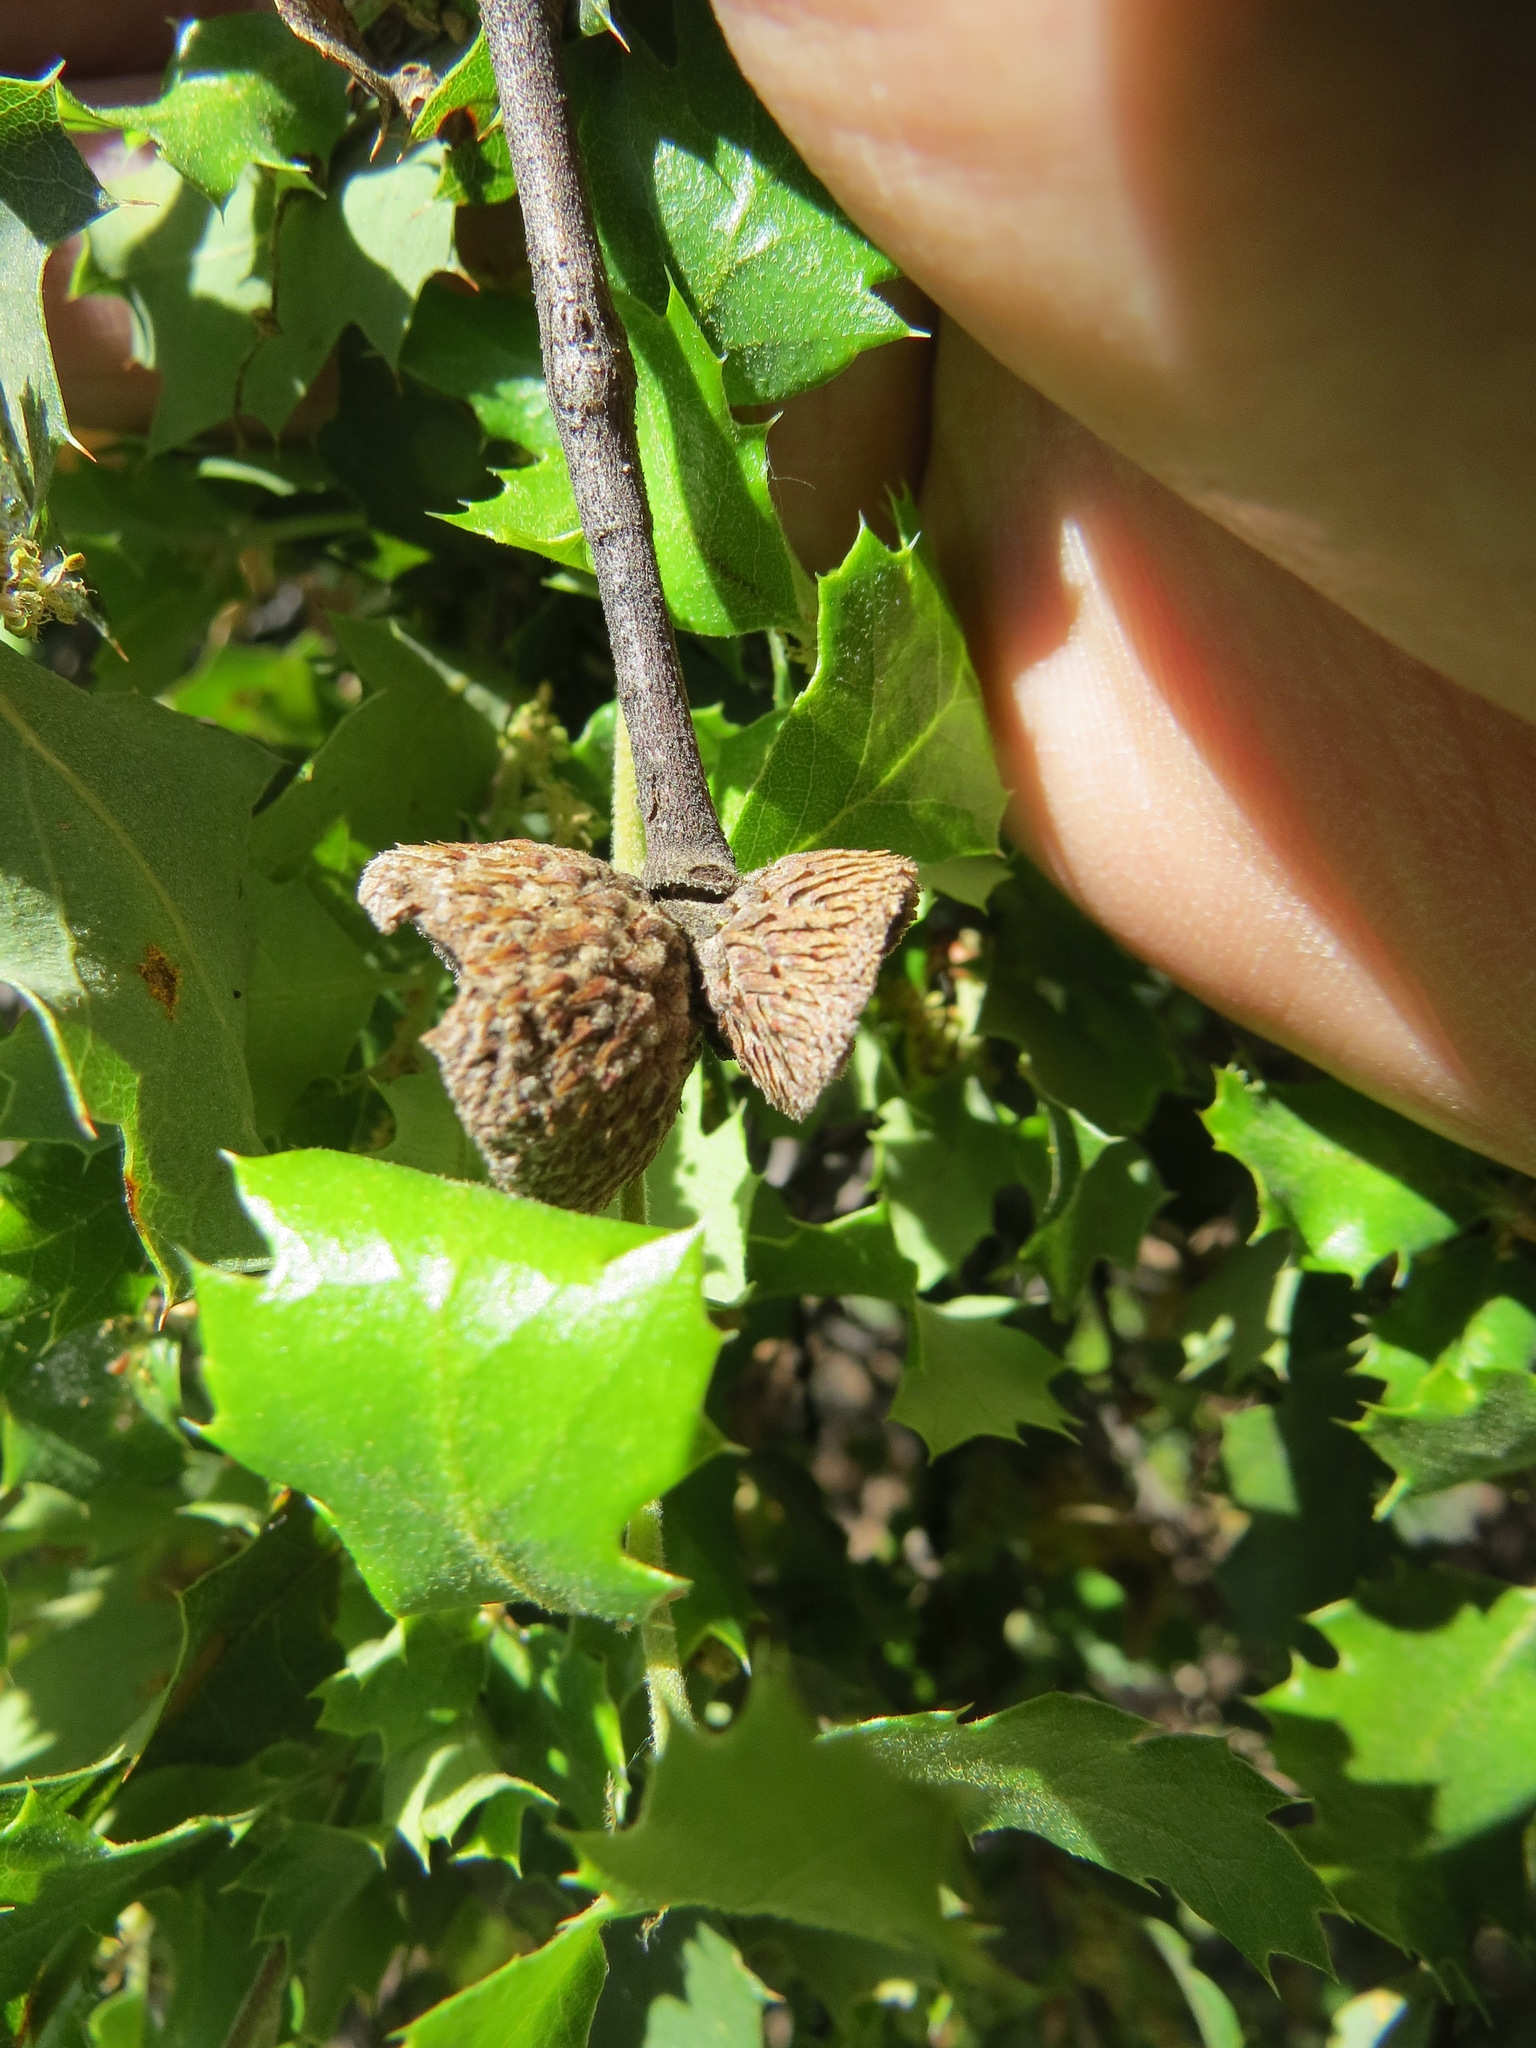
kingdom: Plantae
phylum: Tracheophyta
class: Magnoliopsida
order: Fagales
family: Fagaceae
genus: Quercus
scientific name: Quercus berberidifolia
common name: California scrub oak
